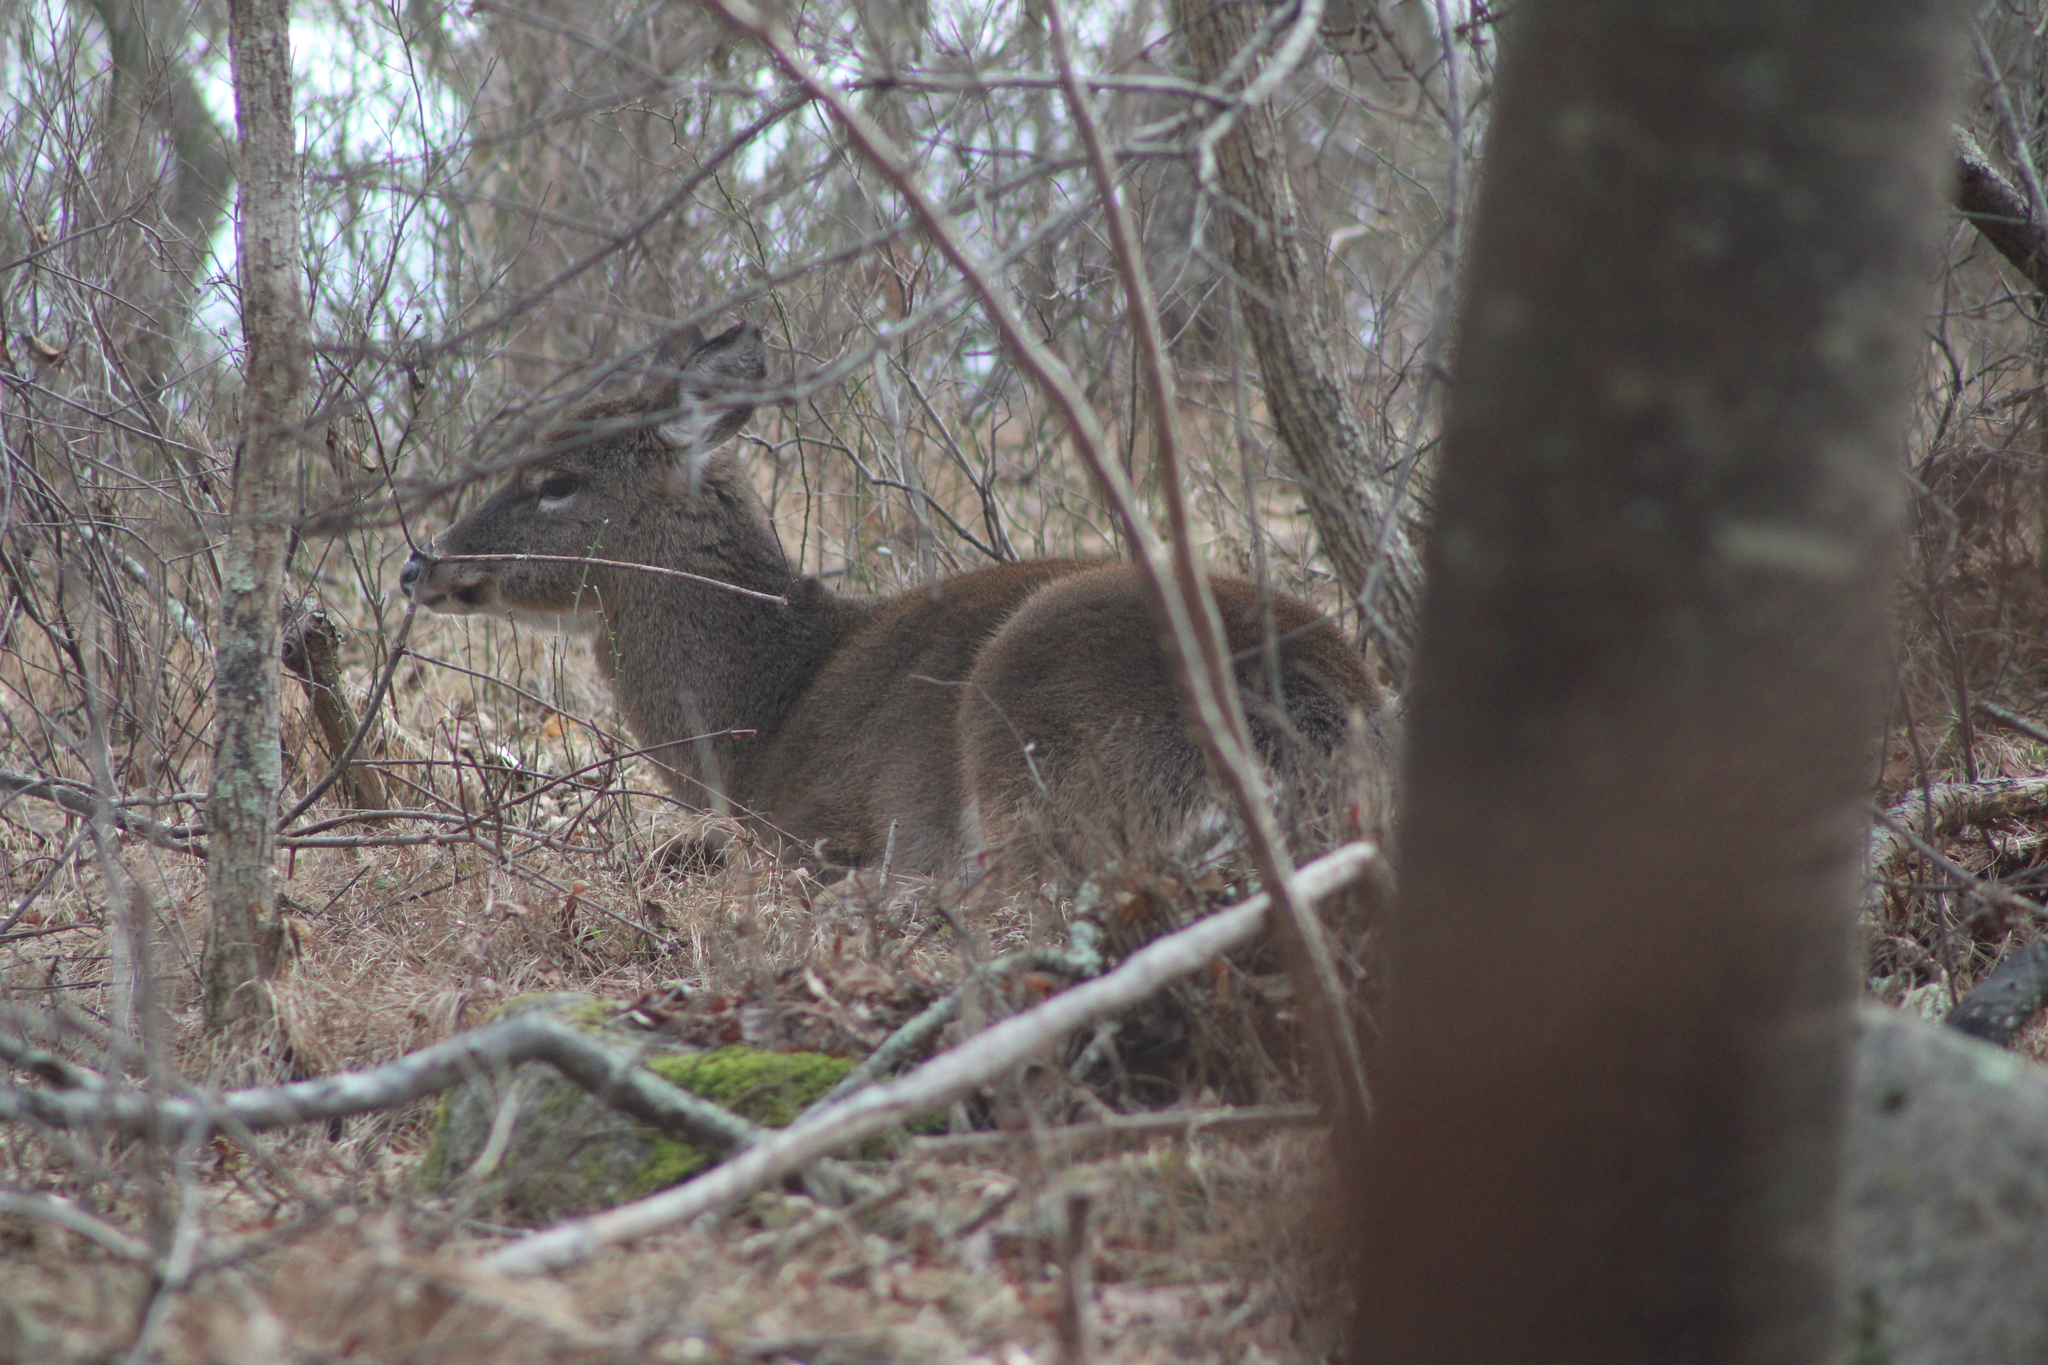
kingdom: Animalia
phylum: Chordata
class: Mammalia
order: Artiodactyla
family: Cervidae
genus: Odocoileus
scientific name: Odocoileus virginianus
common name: White-tailed deer
